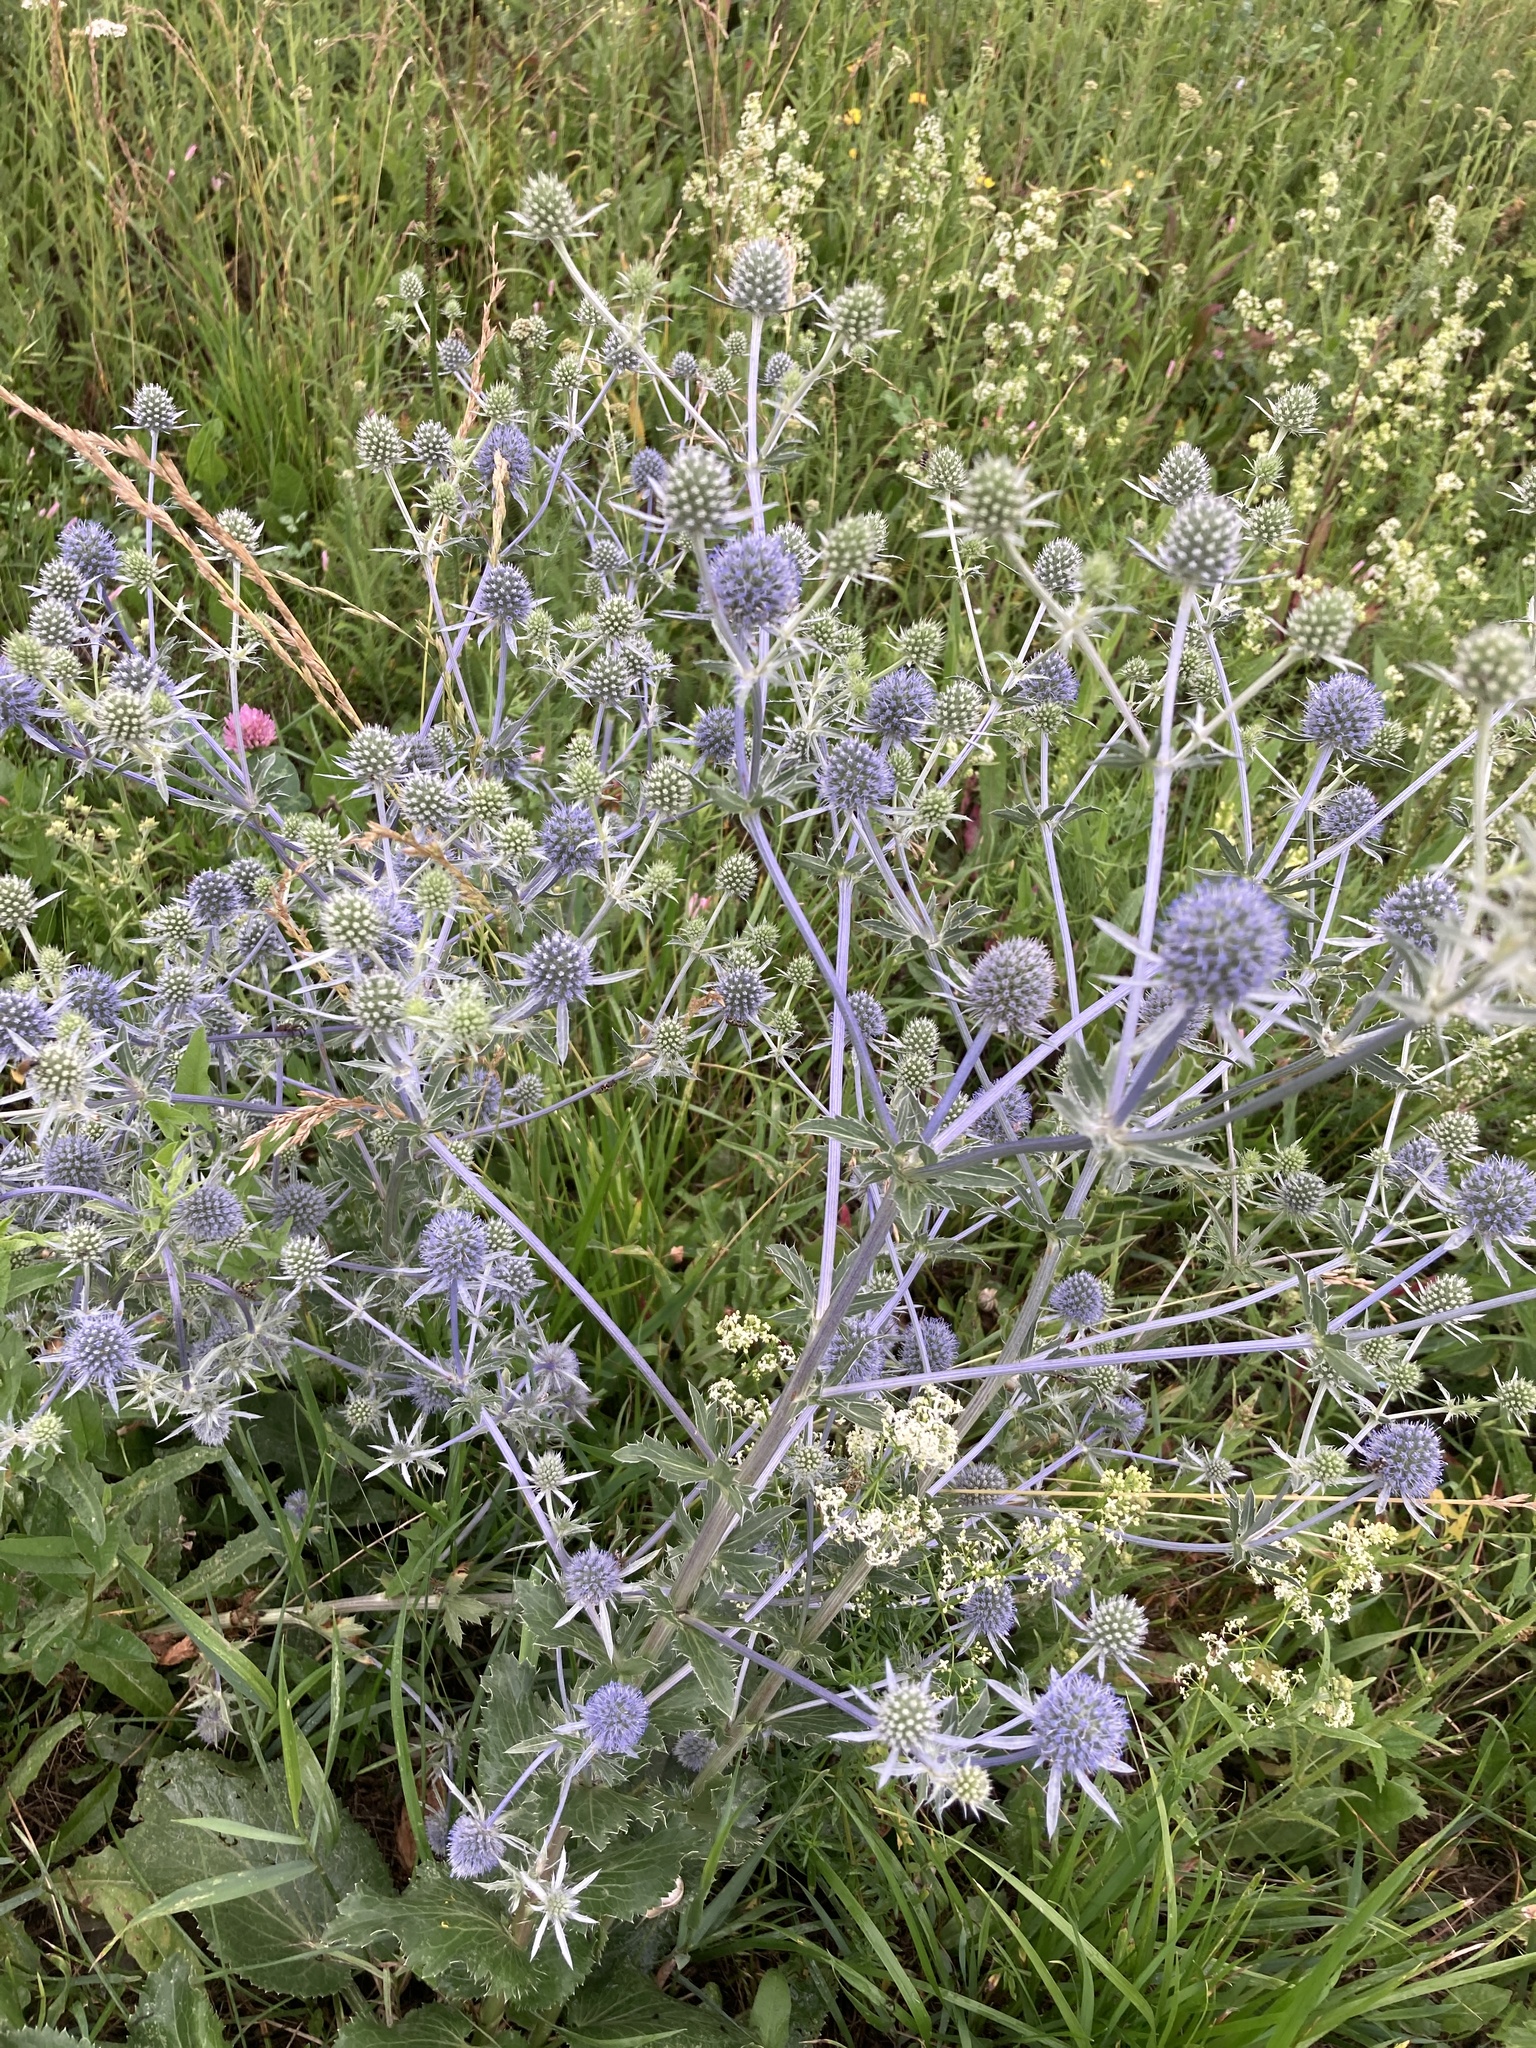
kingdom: Plantae
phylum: Tracheophyta
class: Magnoliopsida
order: Apiales
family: Apiaceae
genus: Eryngium
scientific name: Eryngium planum
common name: Blue eryngo
